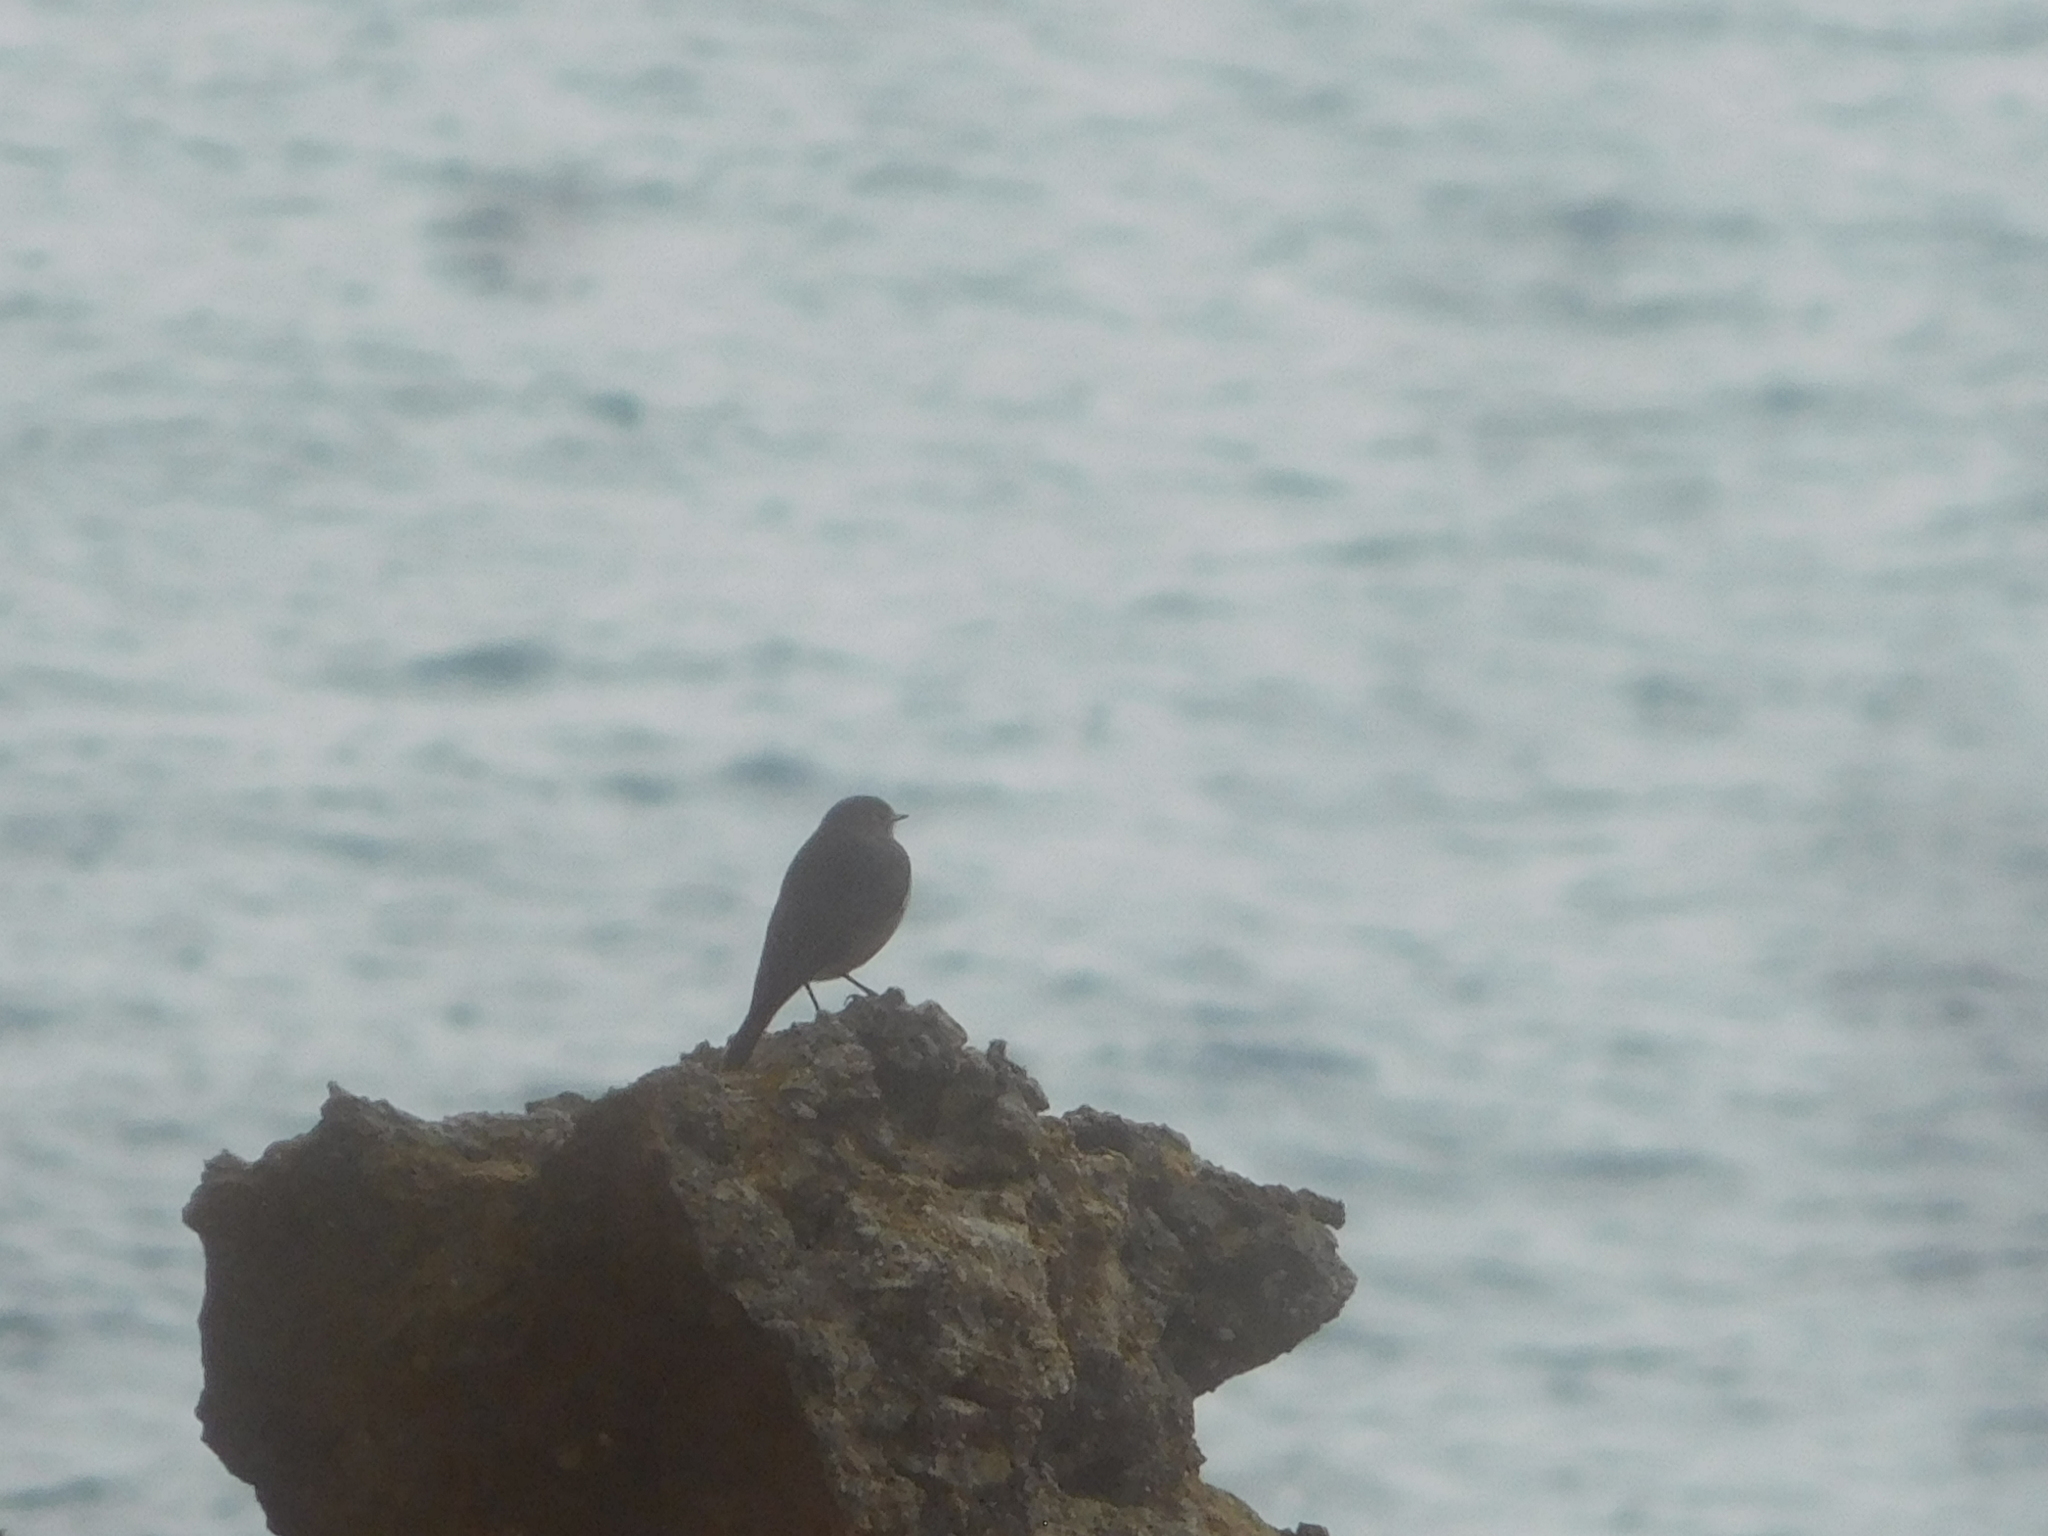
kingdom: Animalia
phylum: Chordata
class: Aves
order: Passeriformes
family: Muscicapidae
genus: Phoenicurus
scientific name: Phoenicurus ochruros
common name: Black redstart
